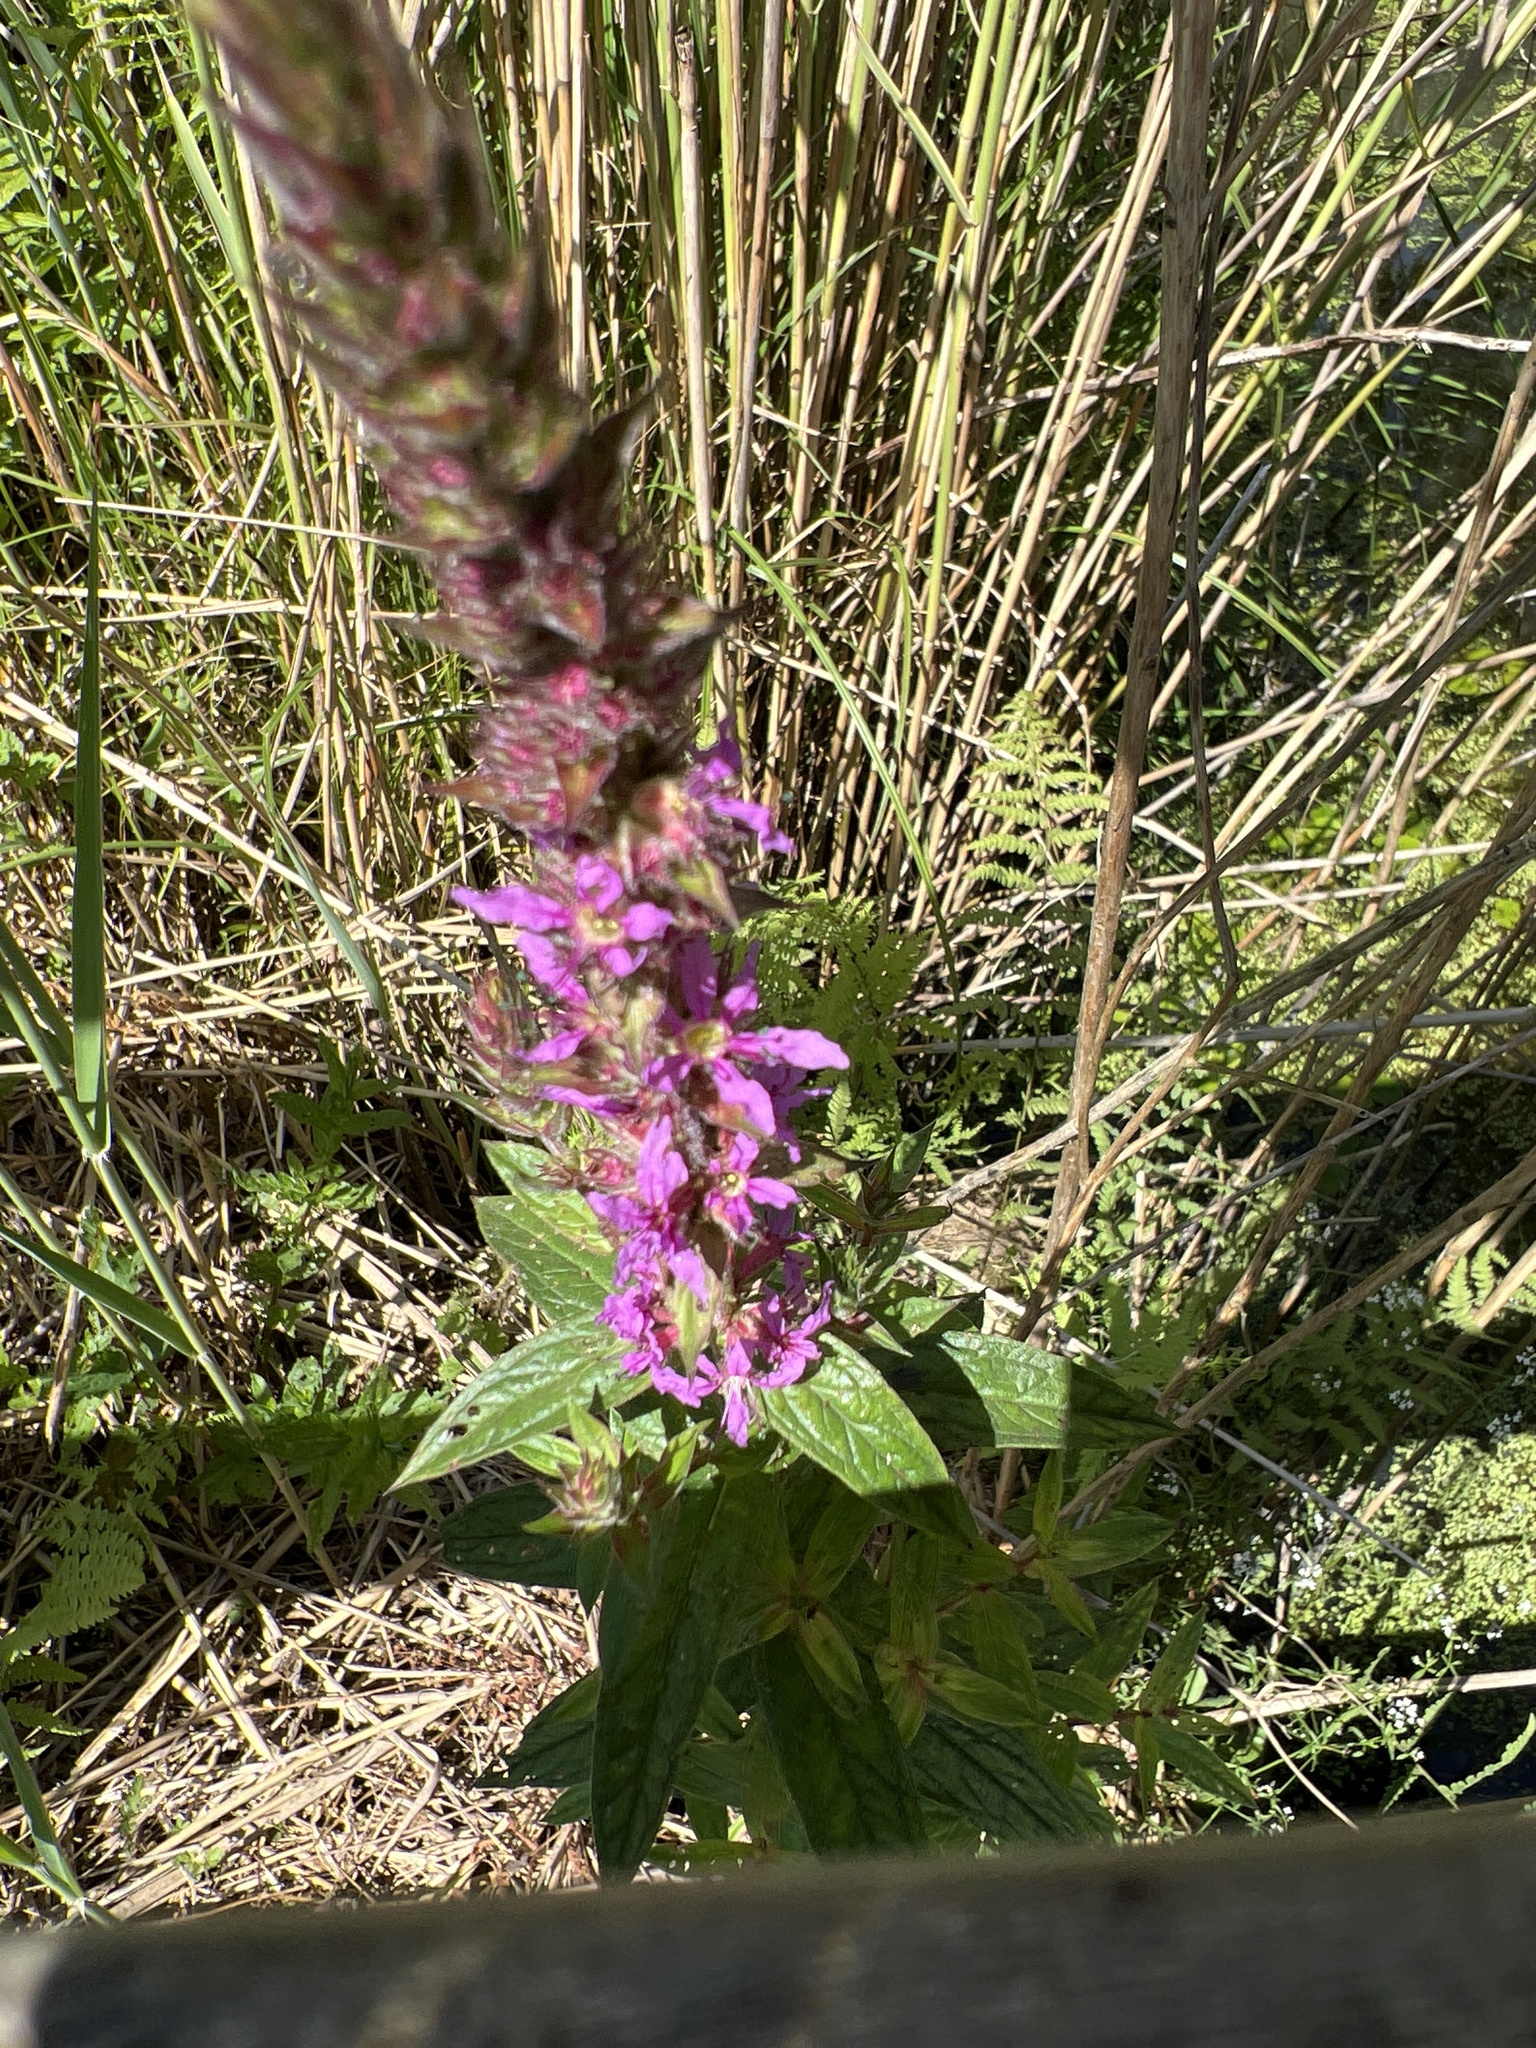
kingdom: Plantae
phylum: Tracheophyta
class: Magnoliopsida
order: Myrtales
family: Lythraceae
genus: Lythrum
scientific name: Lythrum salicaria
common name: Purple loosestrife
